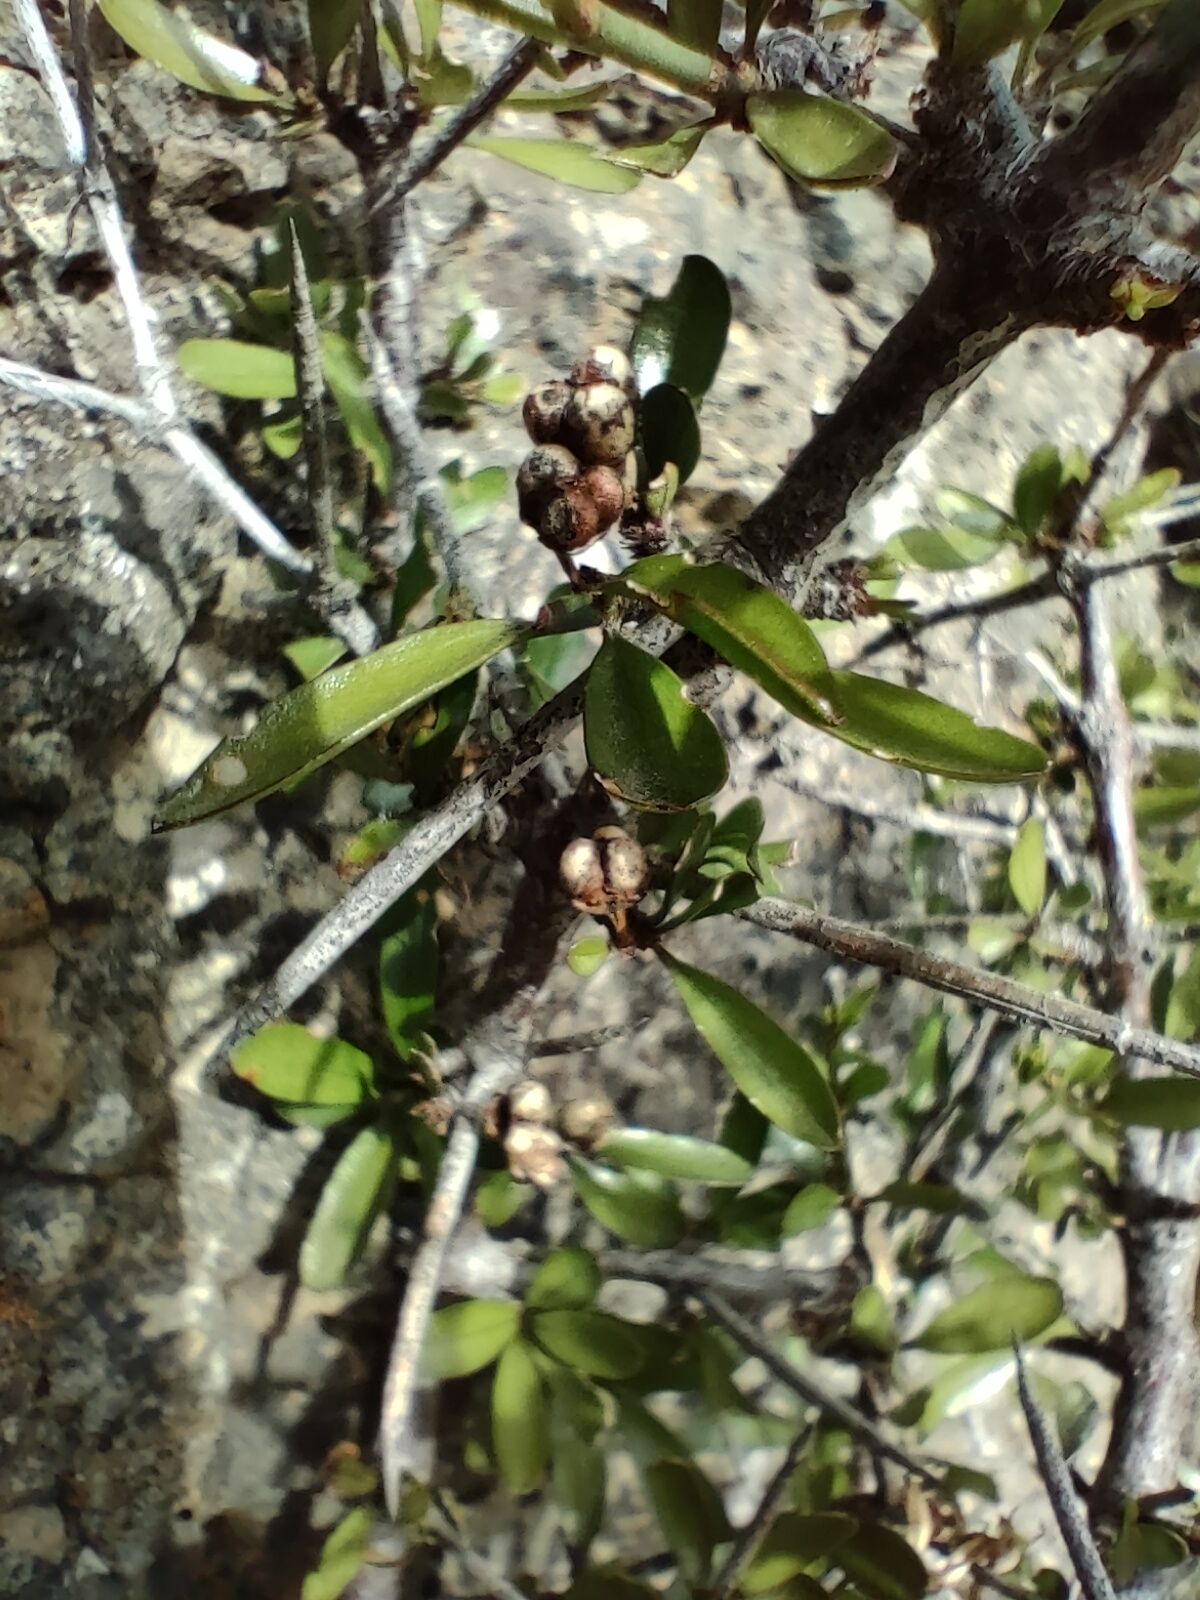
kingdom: Plantae
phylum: Tracheophyta
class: Magnoliopsida
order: Rosales
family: Rhamnaceae
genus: Discaria
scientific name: Discaria toumatou
